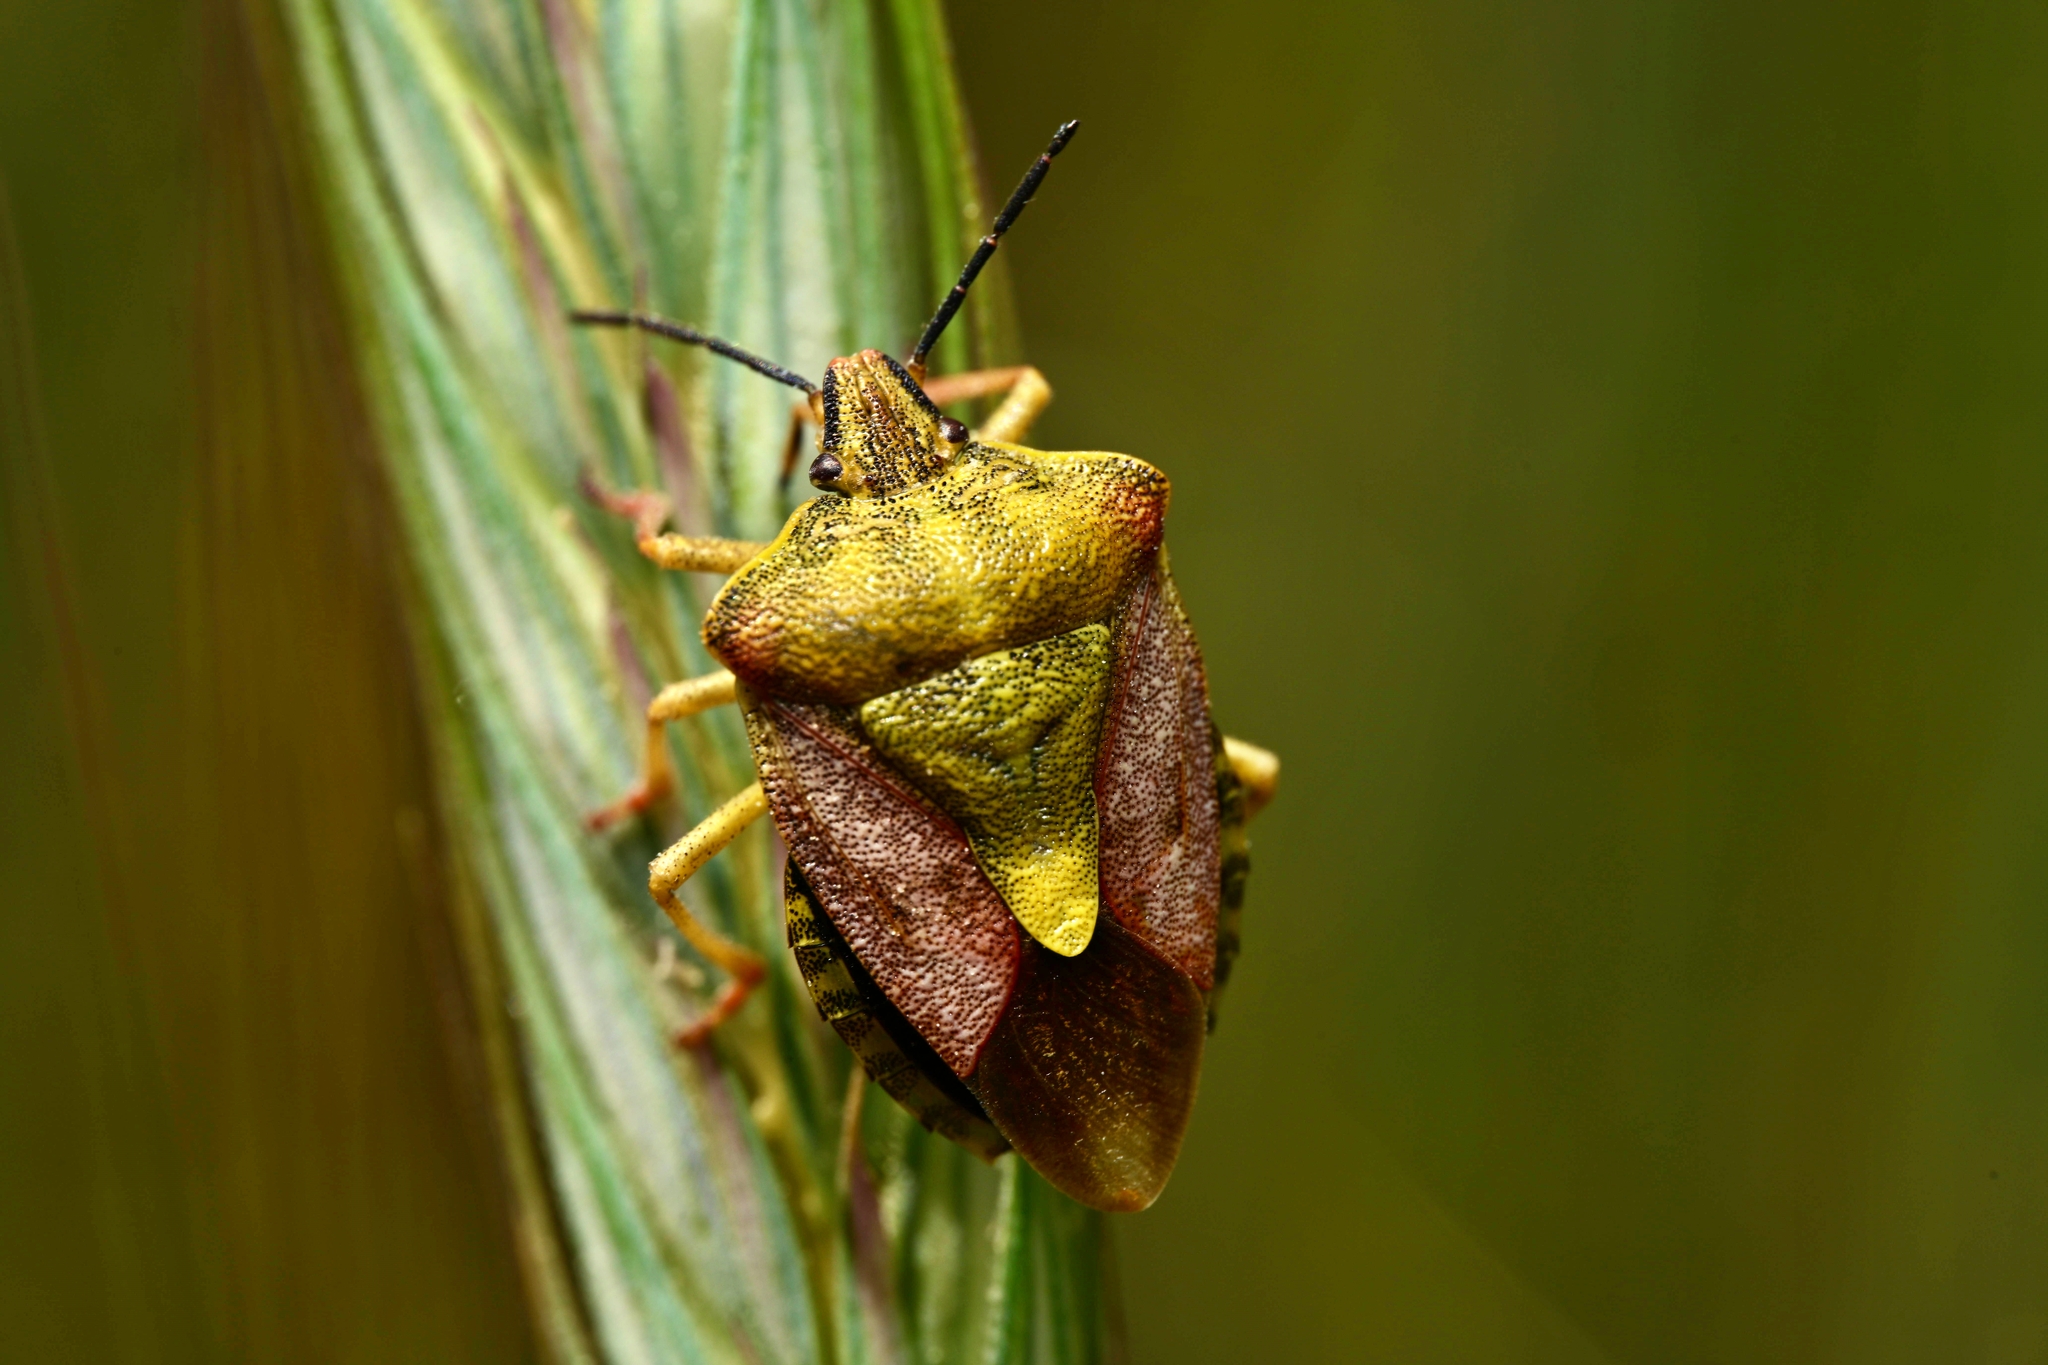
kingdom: Animalia
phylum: Arthropoda
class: Insecta
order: Hemiptera
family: Pentatomidae
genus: Carpocoris
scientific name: Carpocoris purpureipennis
